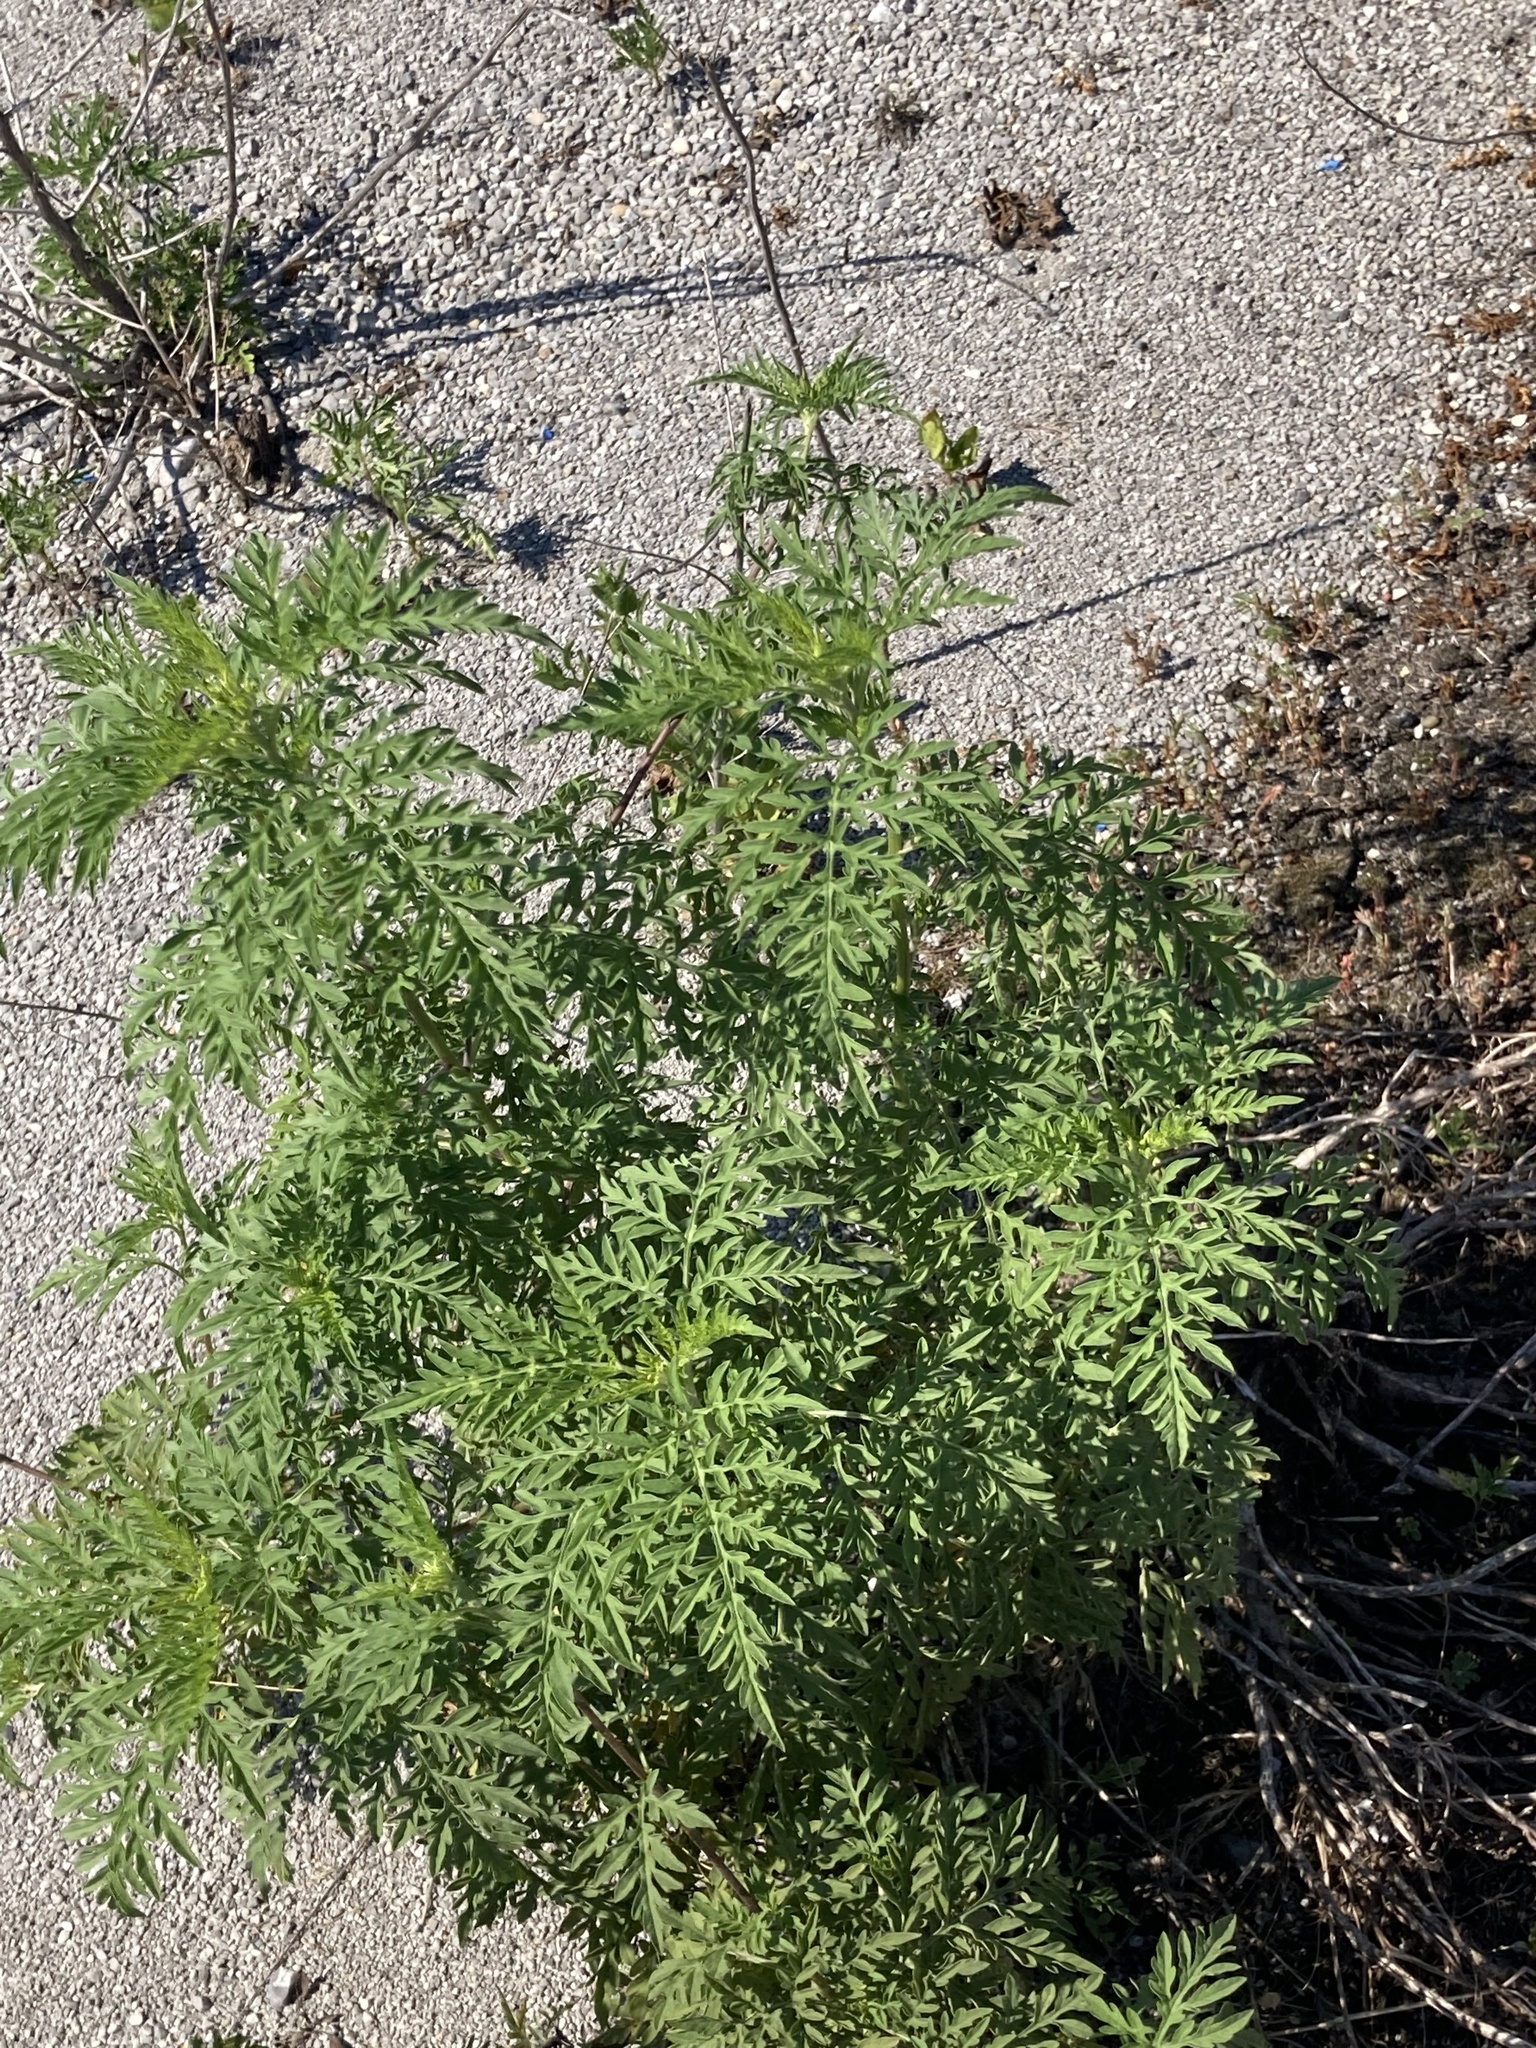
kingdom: Plantae
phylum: Tracheophyta
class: Magnoliopsida
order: Asterales
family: Asteraceae
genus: Ambrosia
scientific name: Ambrosia artemisiifolia
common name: Annual ragweed
